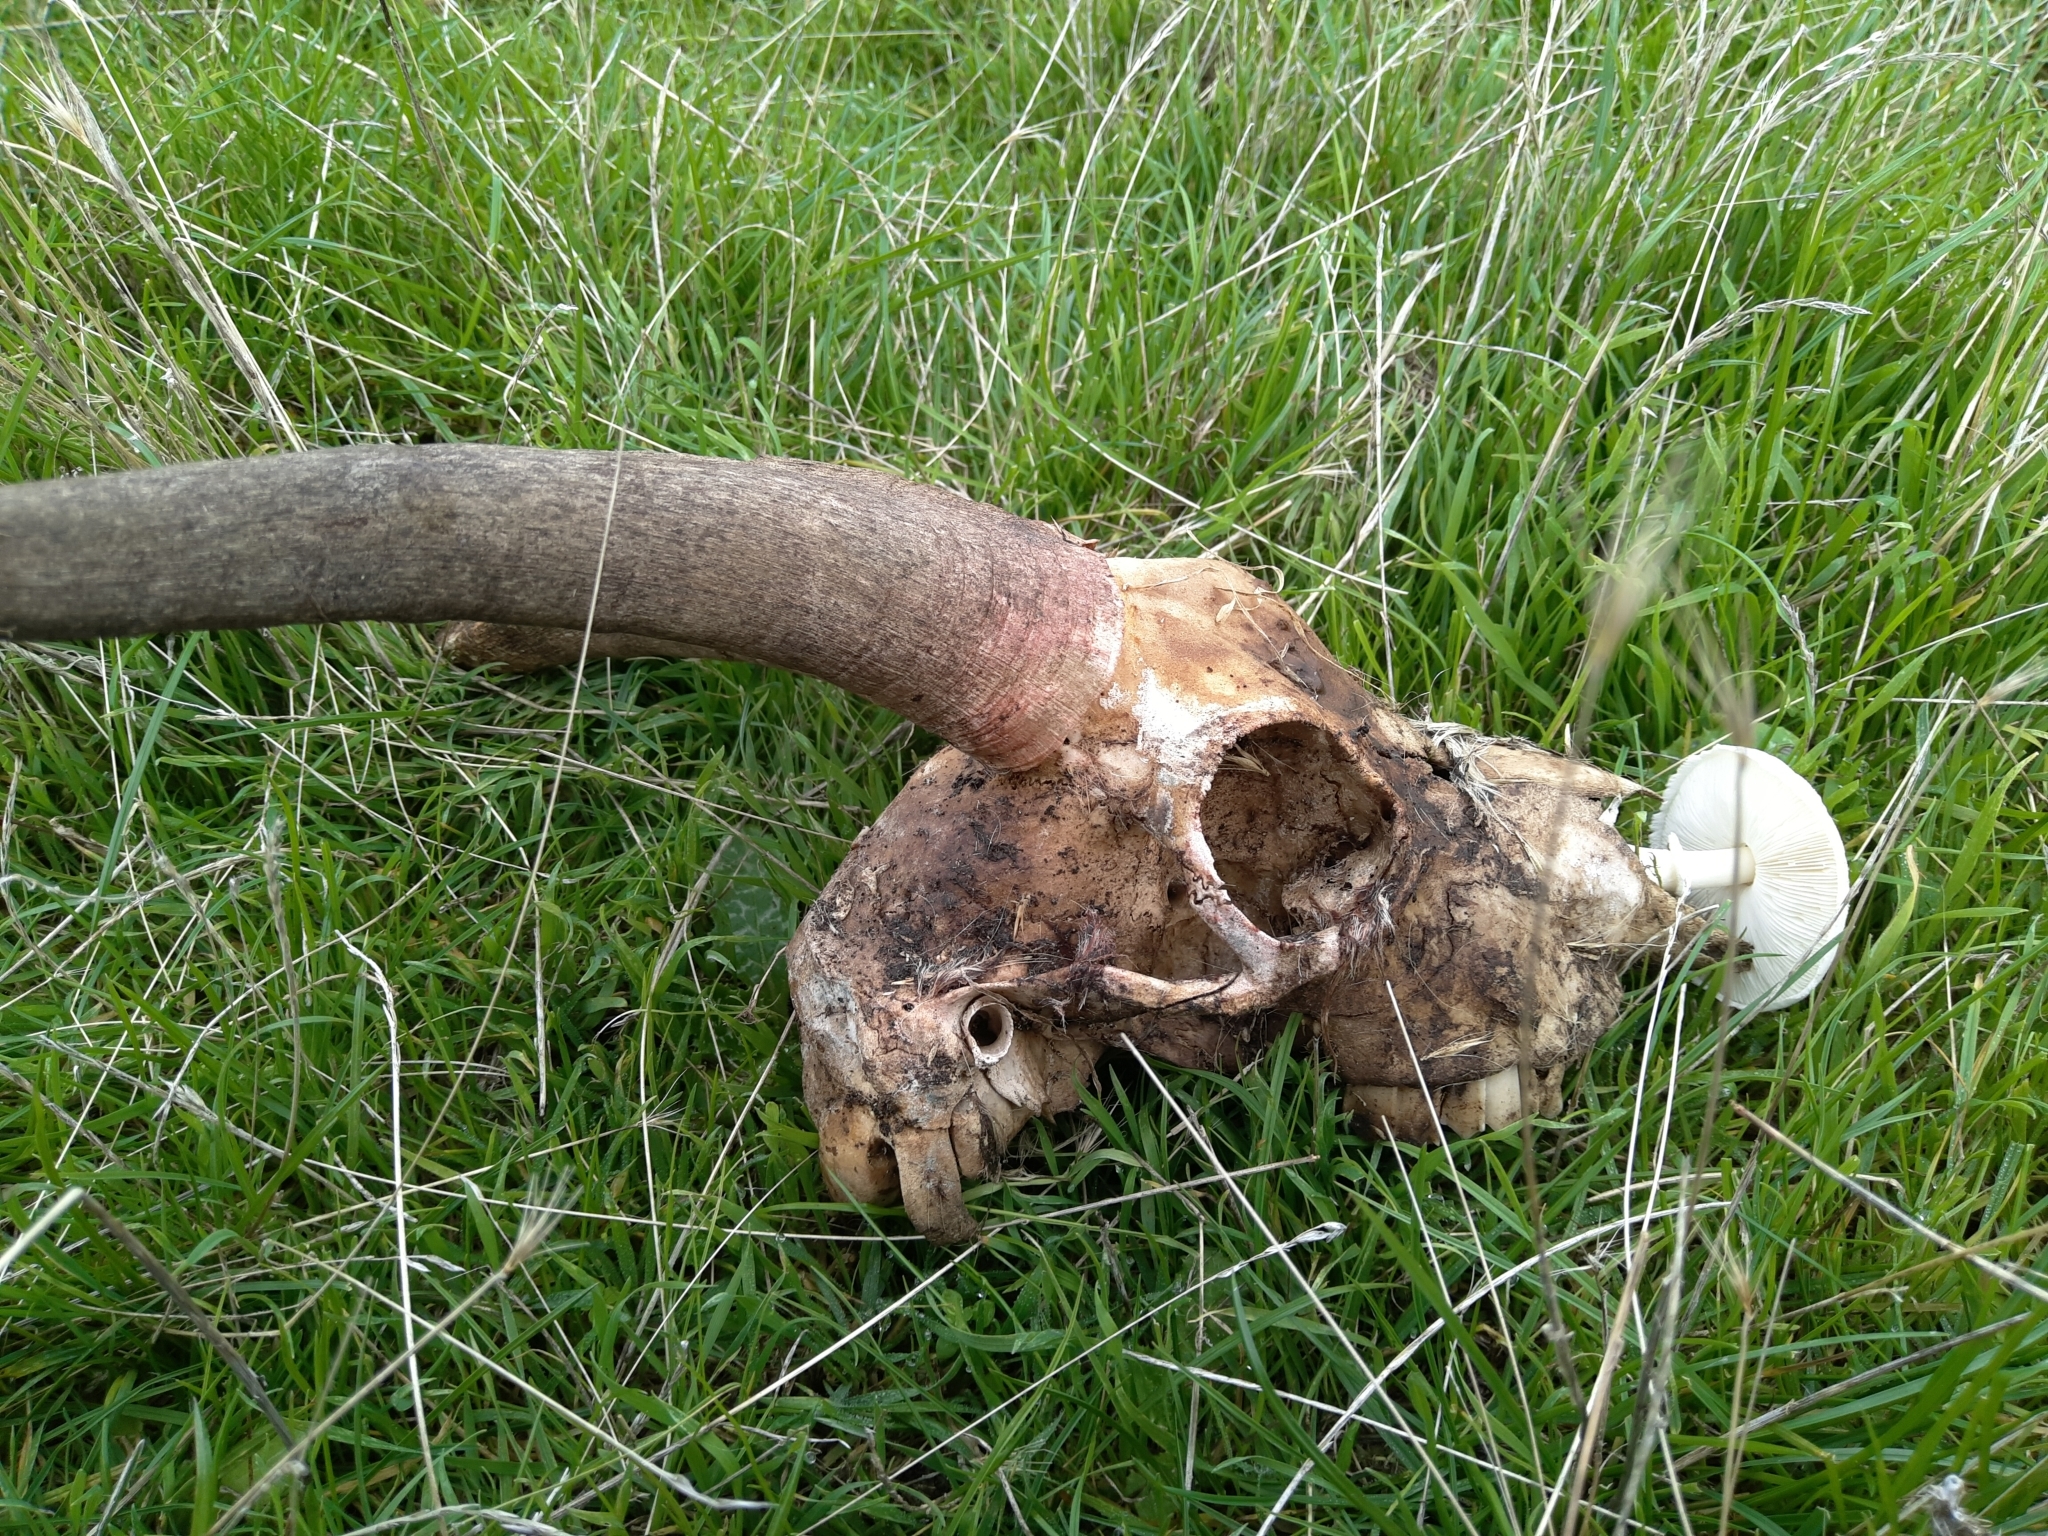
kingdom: Animalia
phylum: Chordata
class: Mammalia
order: Artiodactyla
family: Bovidae
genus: Capra
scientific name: Capra hircus
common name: Domestic goat
